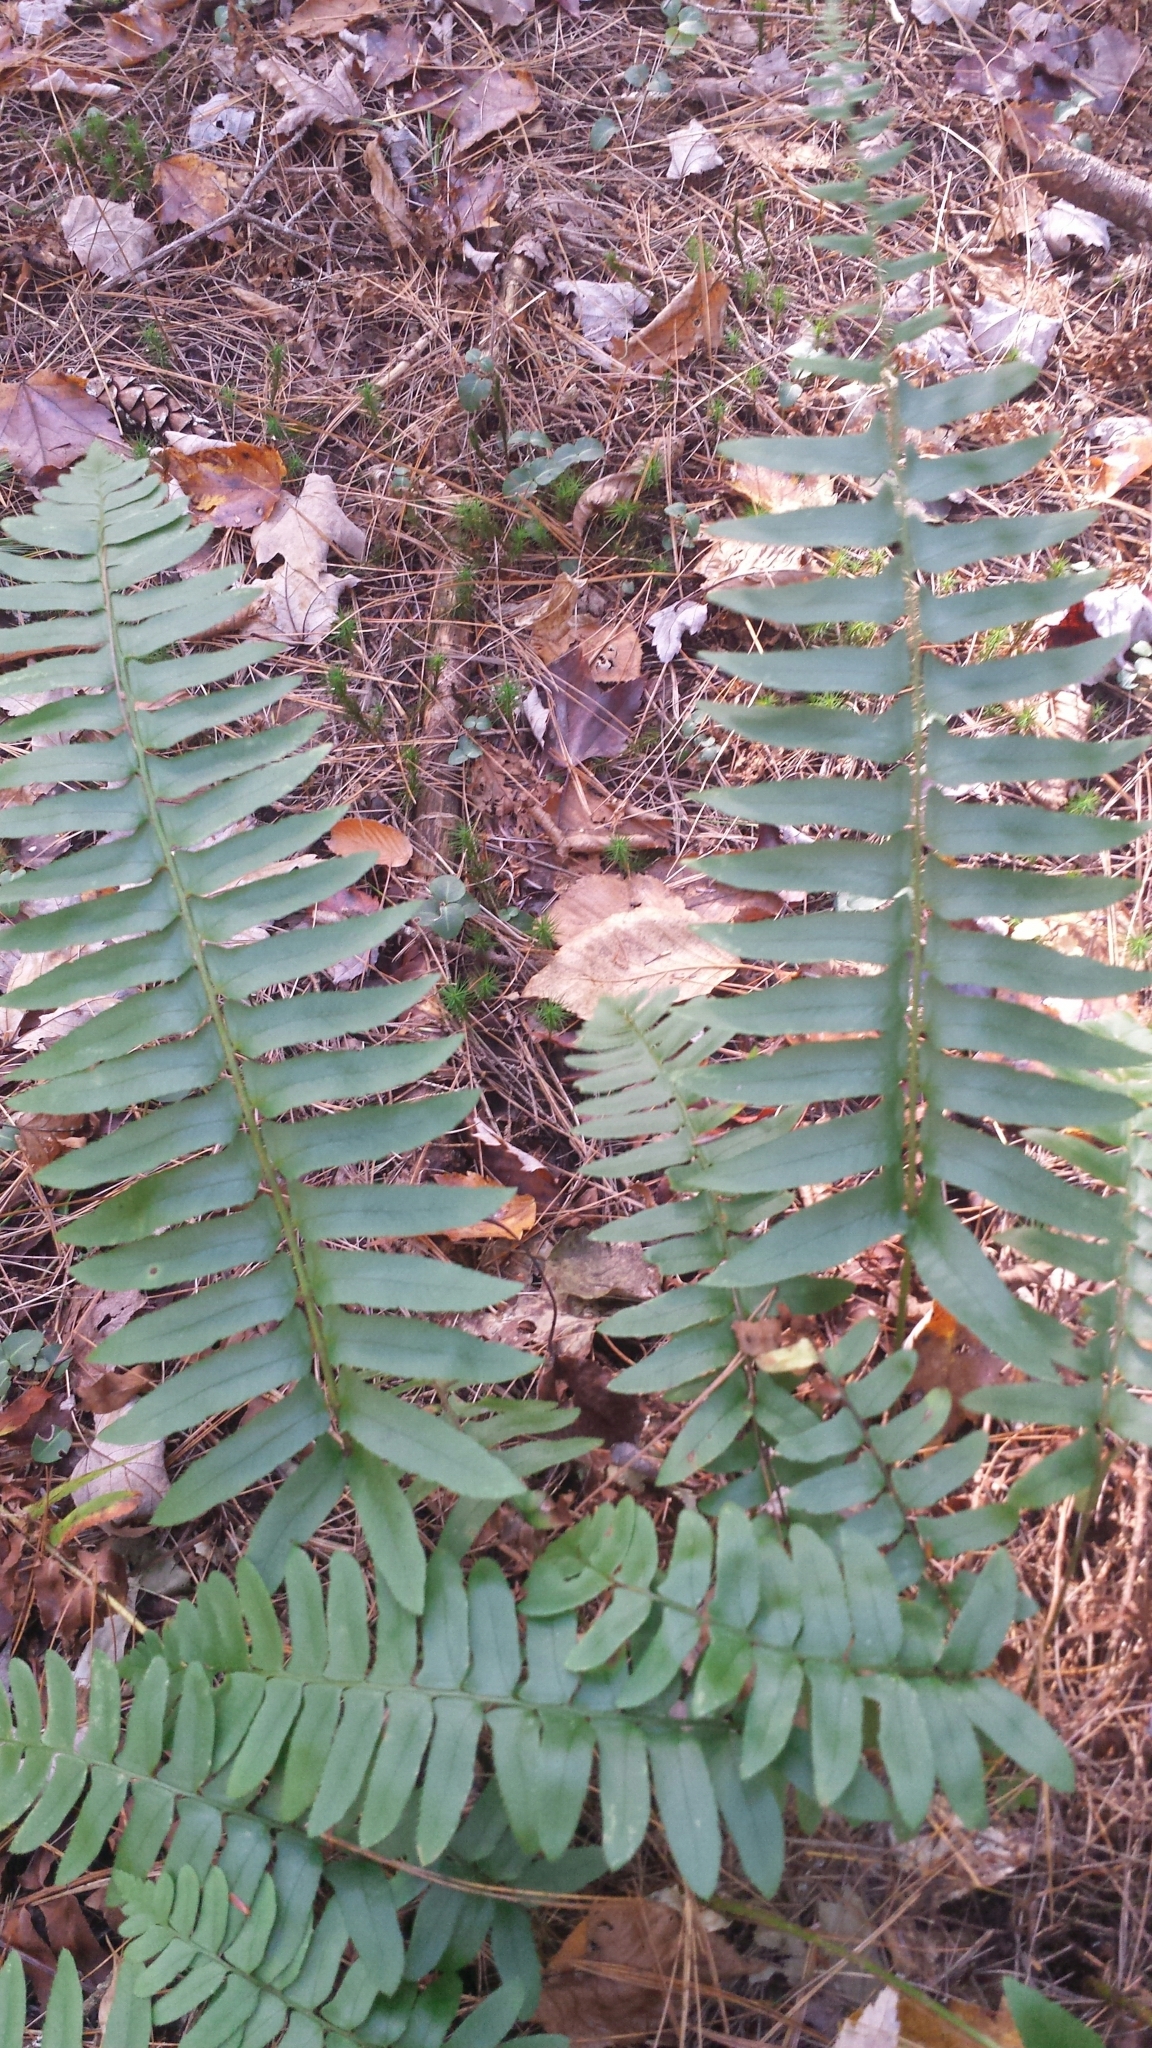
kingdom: Plantae
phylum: Tracheophyta
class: Polypodiopsida
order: Polypodiales
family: Dryopteridaceae
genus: Polystichum
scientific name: Polystichum acrostichoides
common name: Christmas fern
